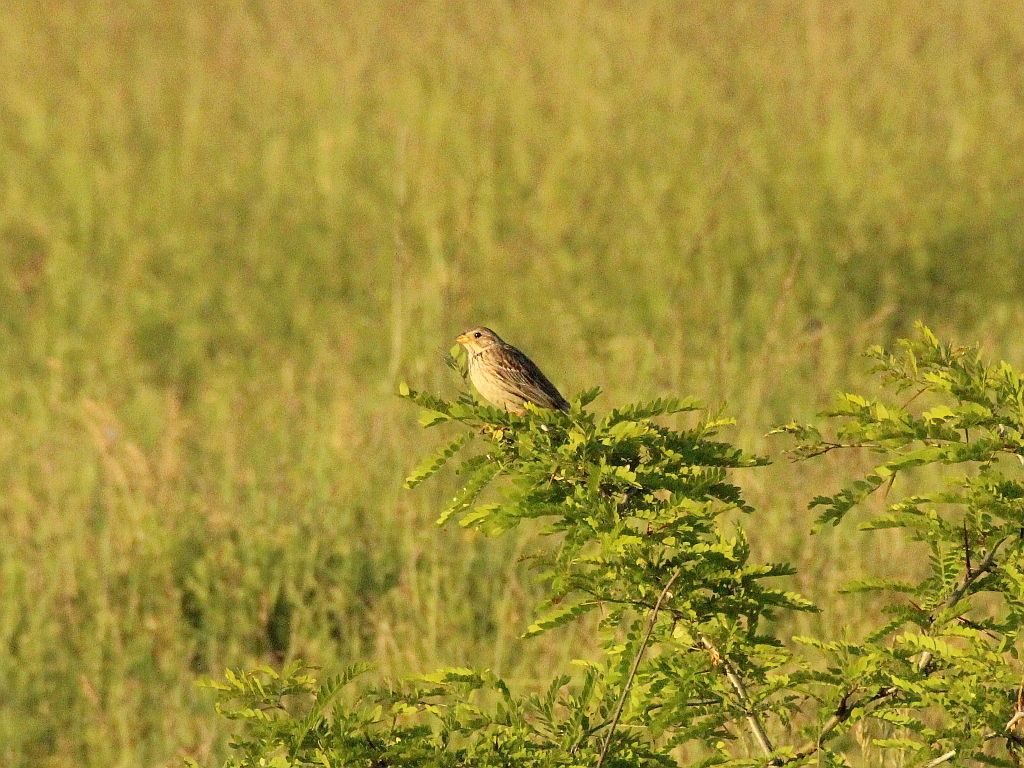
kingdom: Animalia
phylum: Chordata
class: Aves
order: Passeriformes
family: Emberizidae
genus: Emberiza
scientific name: Emberiza calandra
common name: Corn bunting
